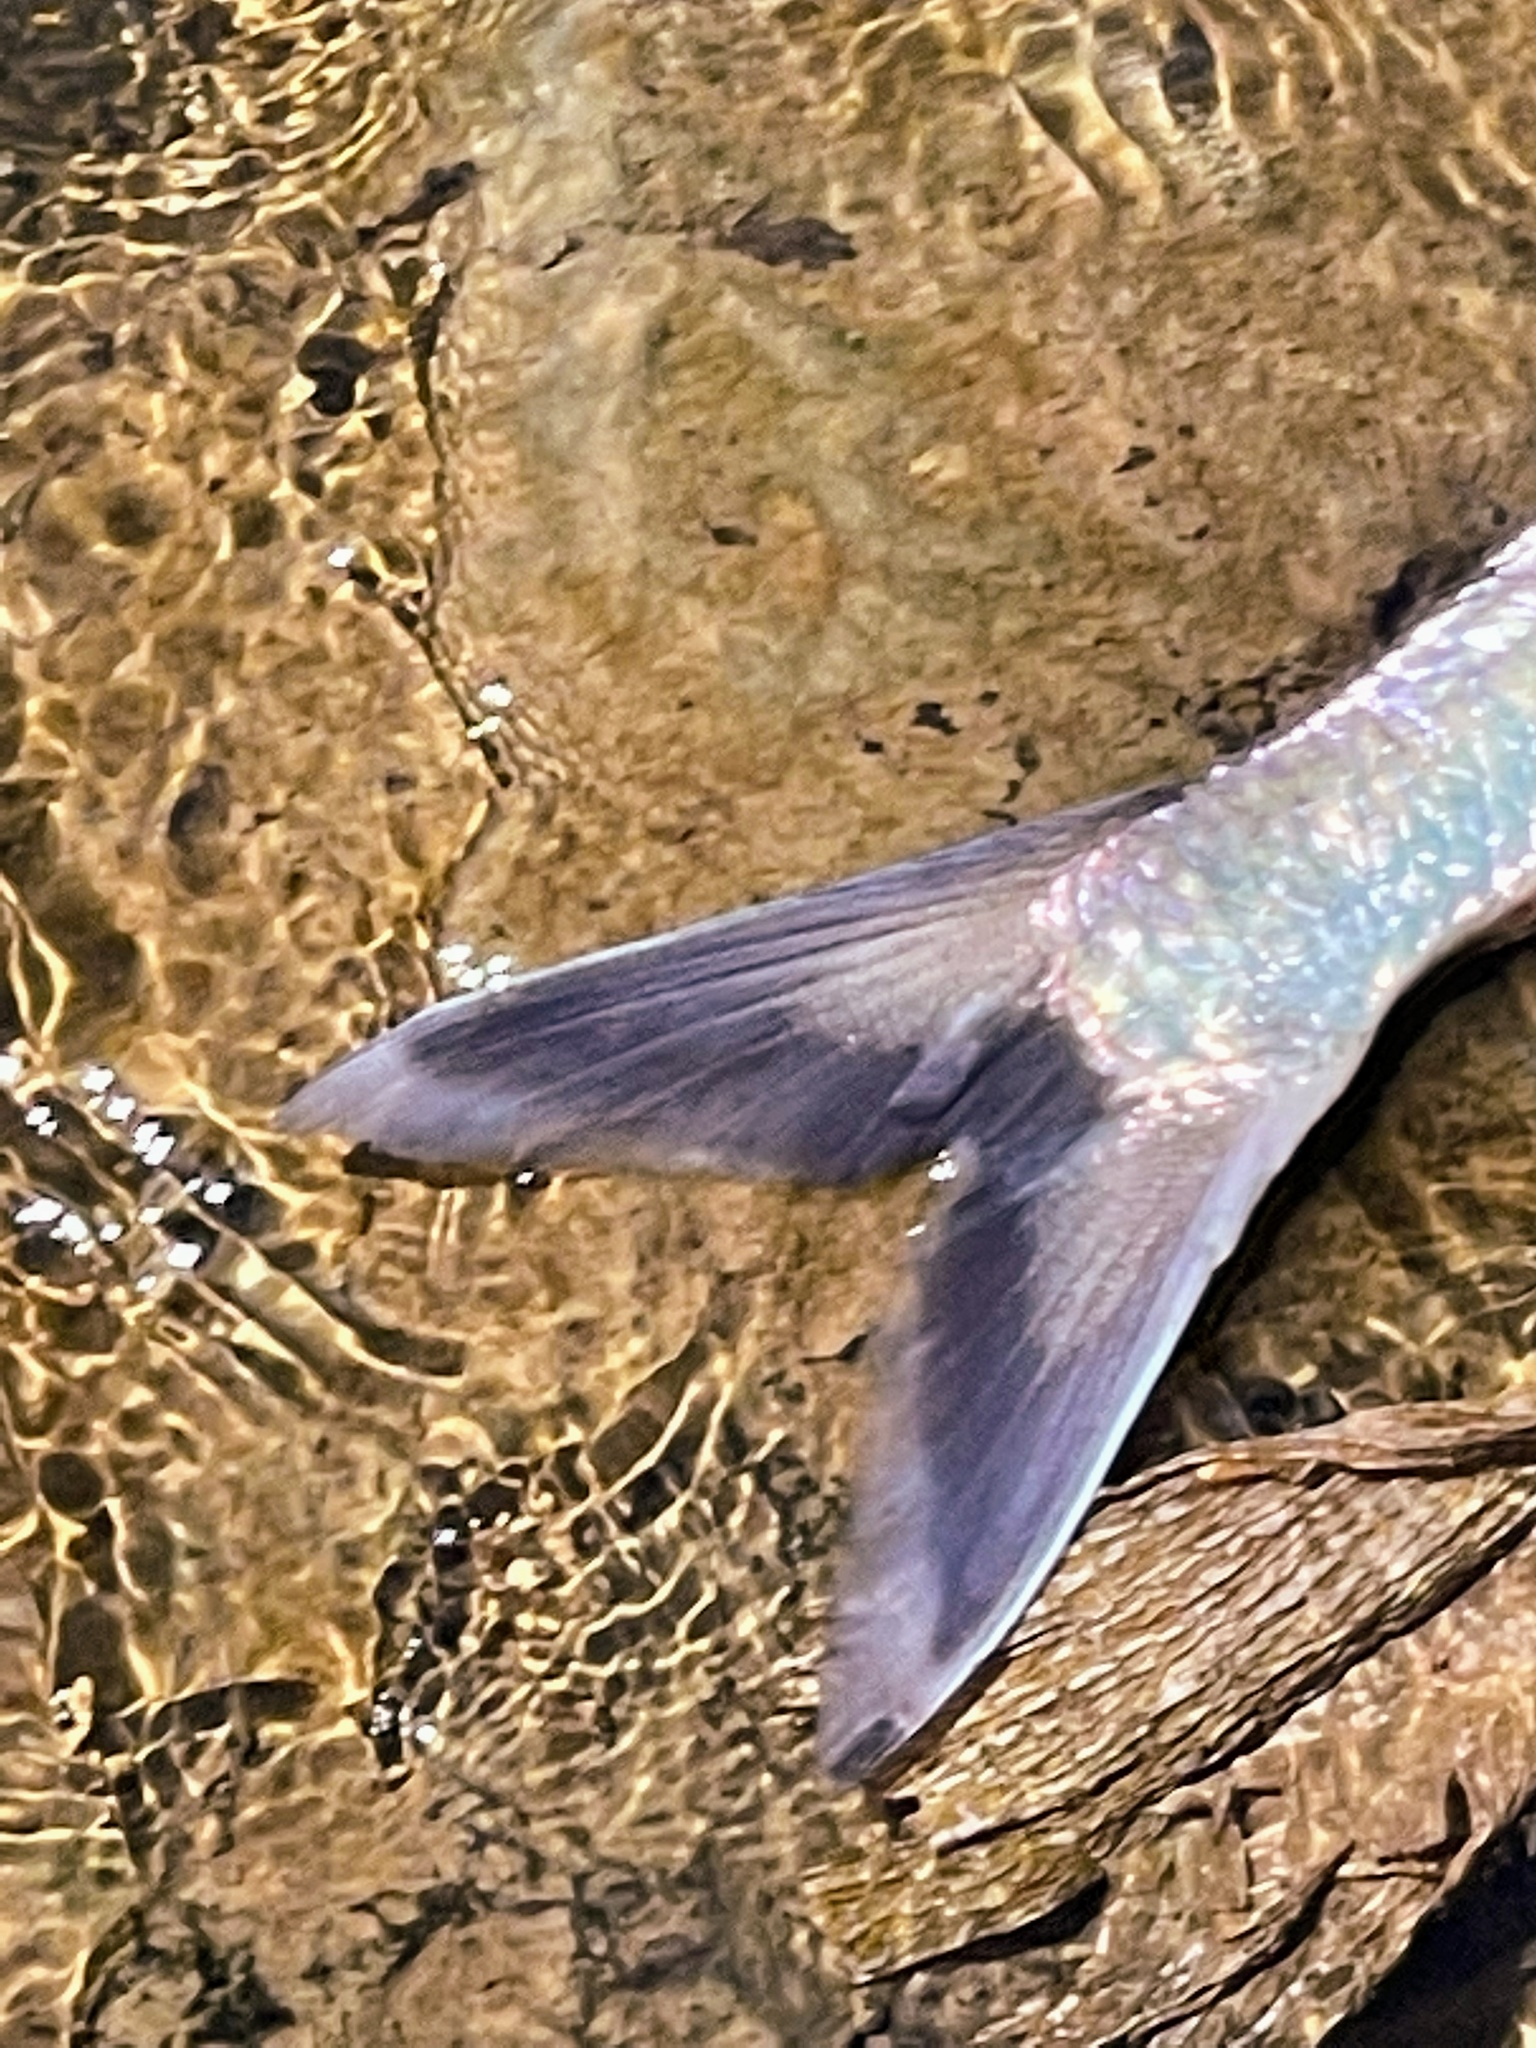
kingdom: Animalia
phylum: Chordata
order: Clupeiformes
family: Clupeidae
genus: Alosa
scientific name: Alosa mediocris
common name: Hickory shad
